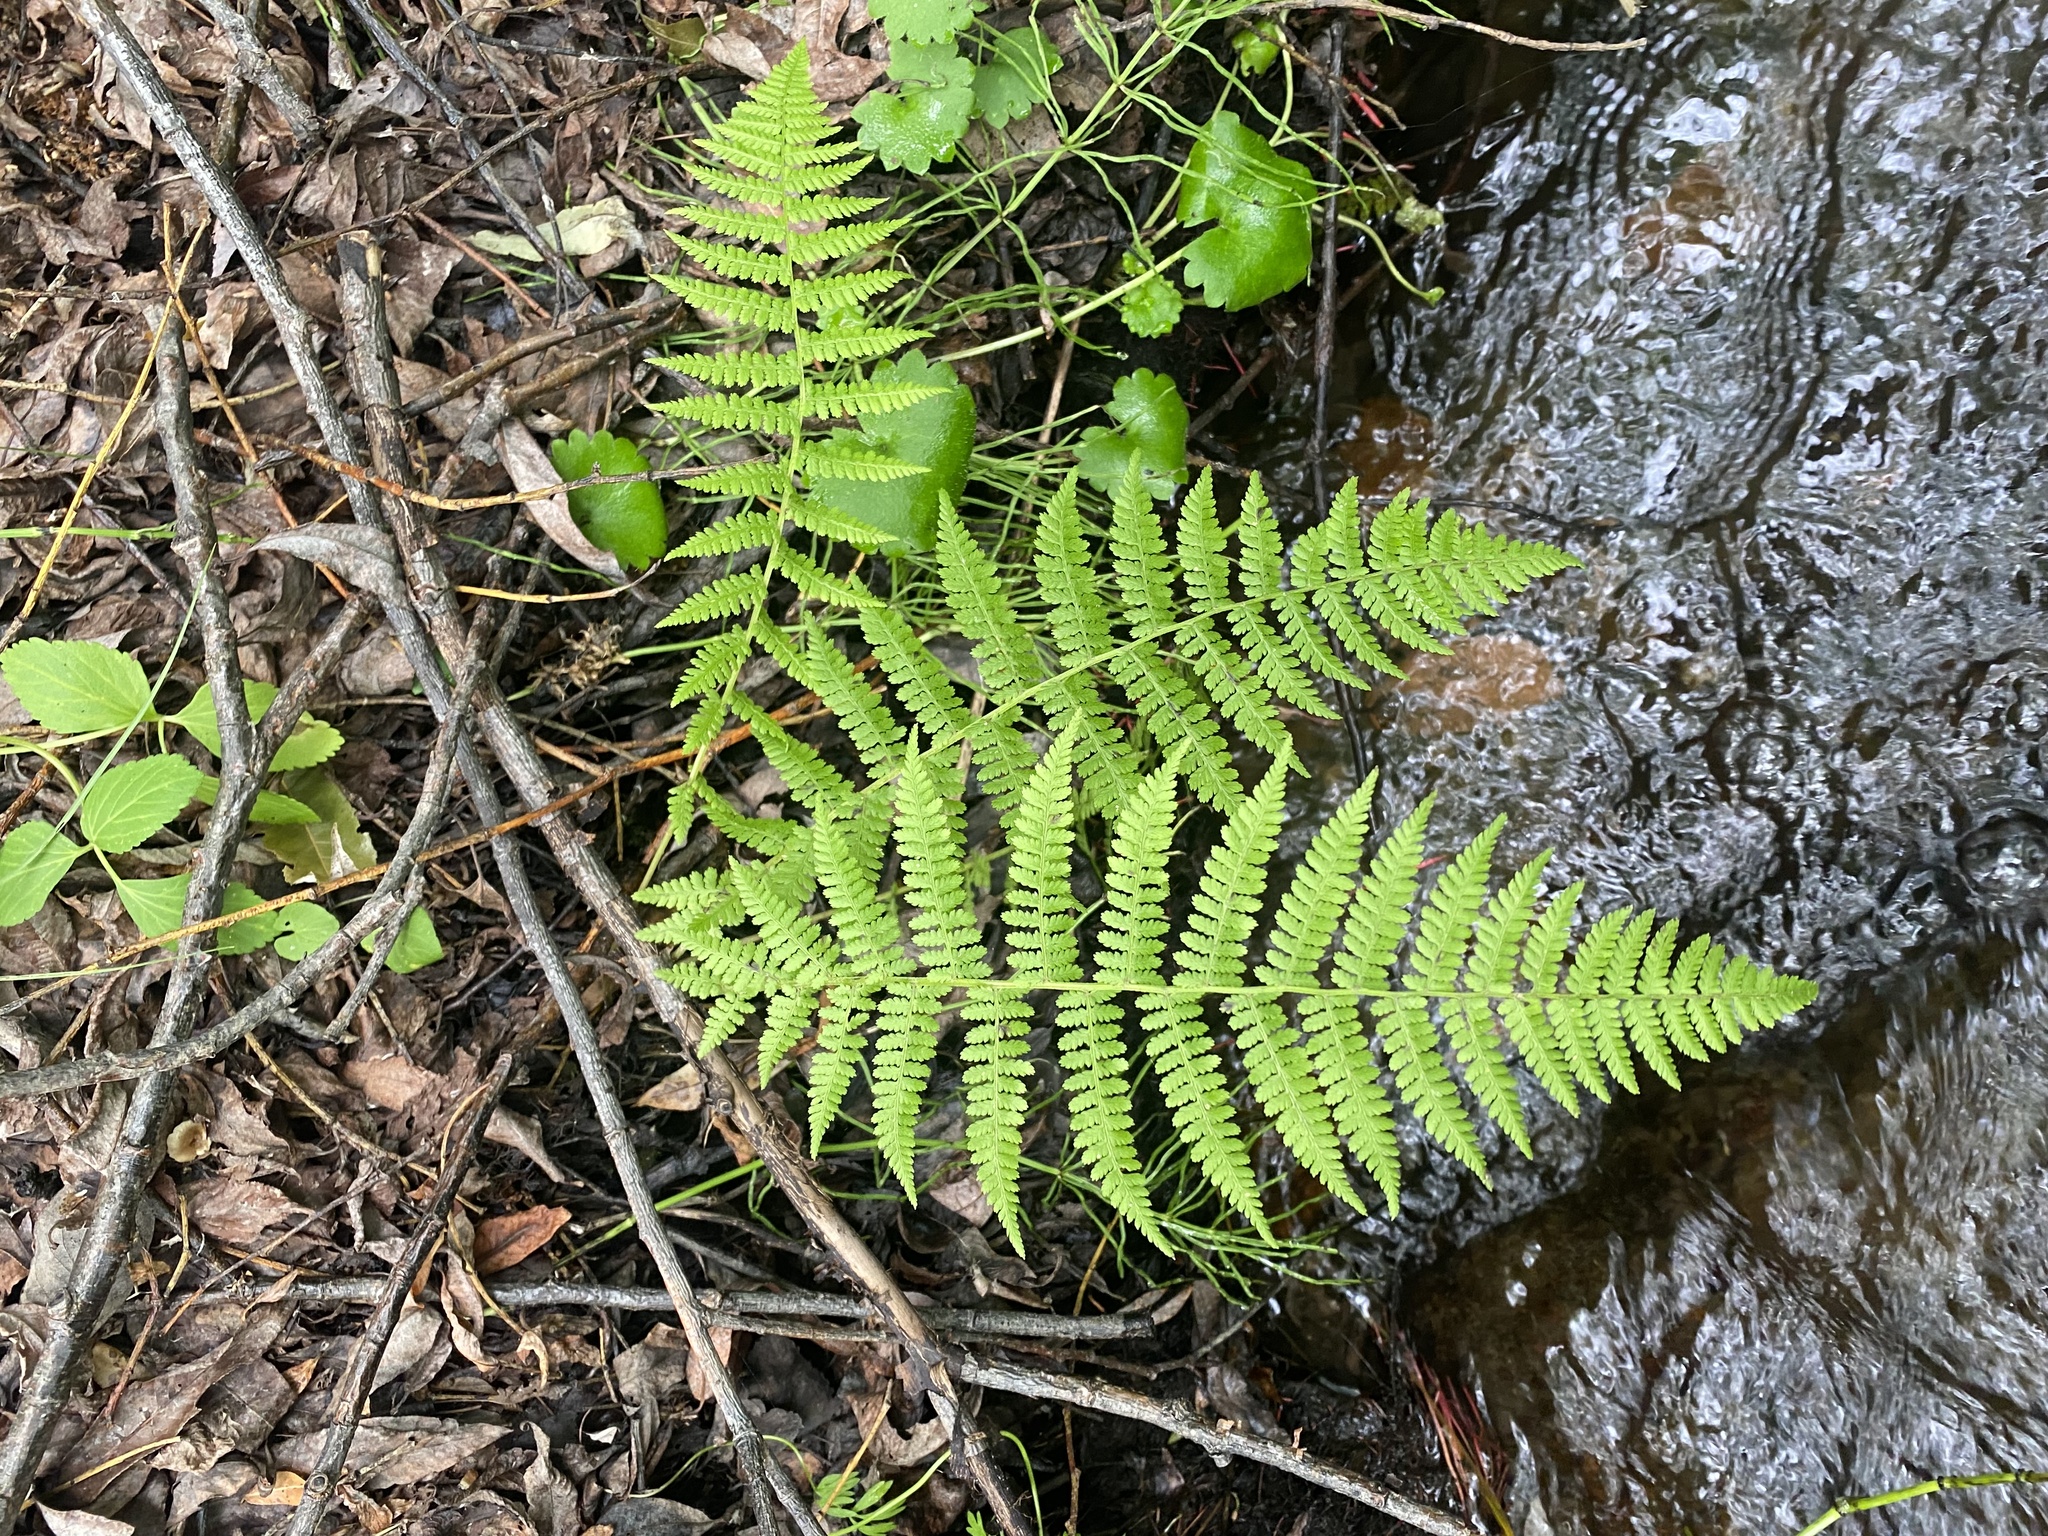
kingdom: Plantae
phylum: Tracheophyta
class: Polypodiopsida
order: Polypodiales
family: Athyriaceae
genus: Athyrium
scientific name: Athyrium filix-femina
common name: Lady fern
